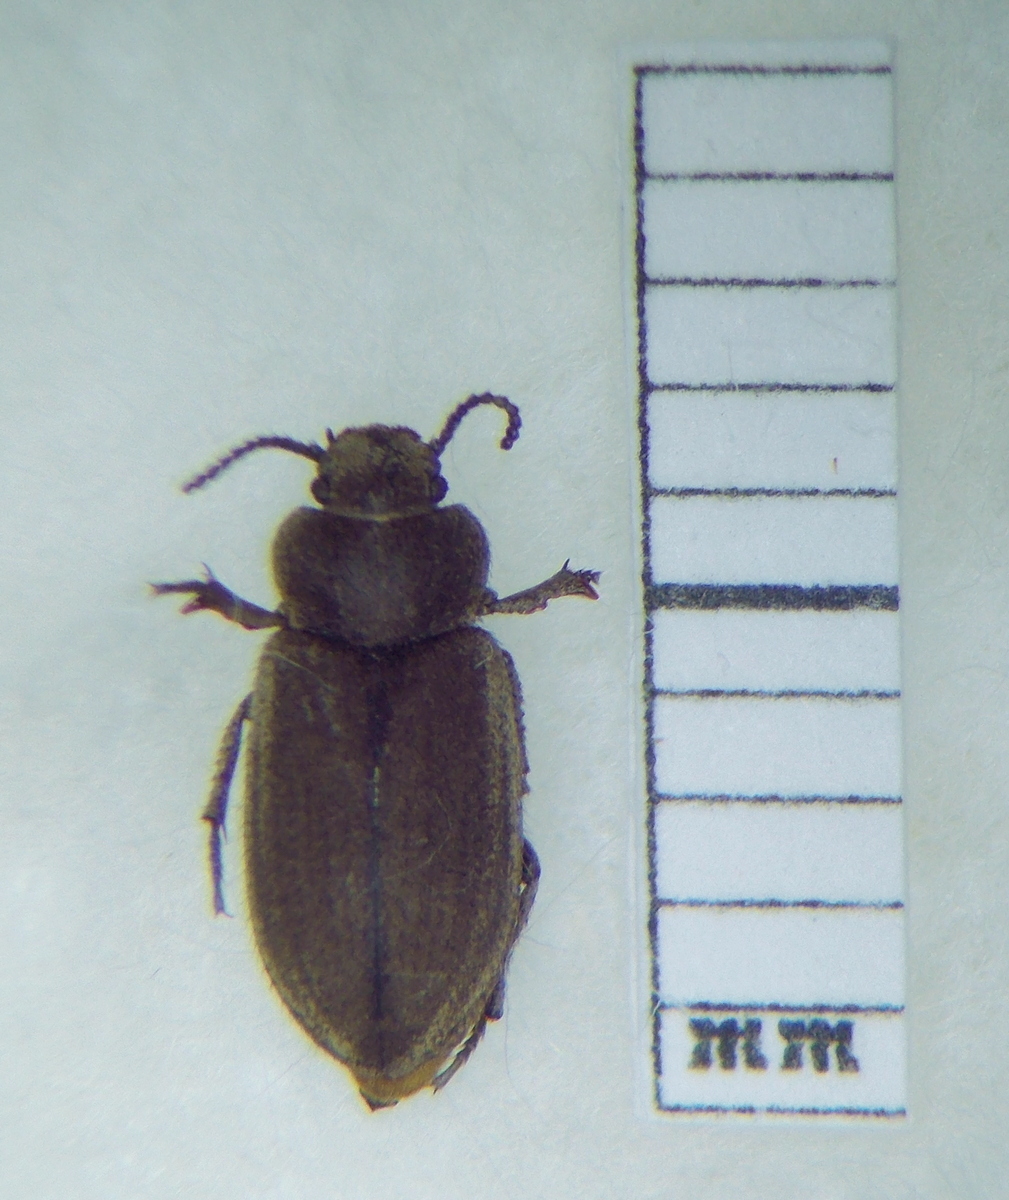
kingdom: Animalia
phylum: Arthropoda
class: Insecta
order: Coleoptera
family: Tenebrionidae
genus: Lachnogya
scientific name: Lachnogya squamosa
